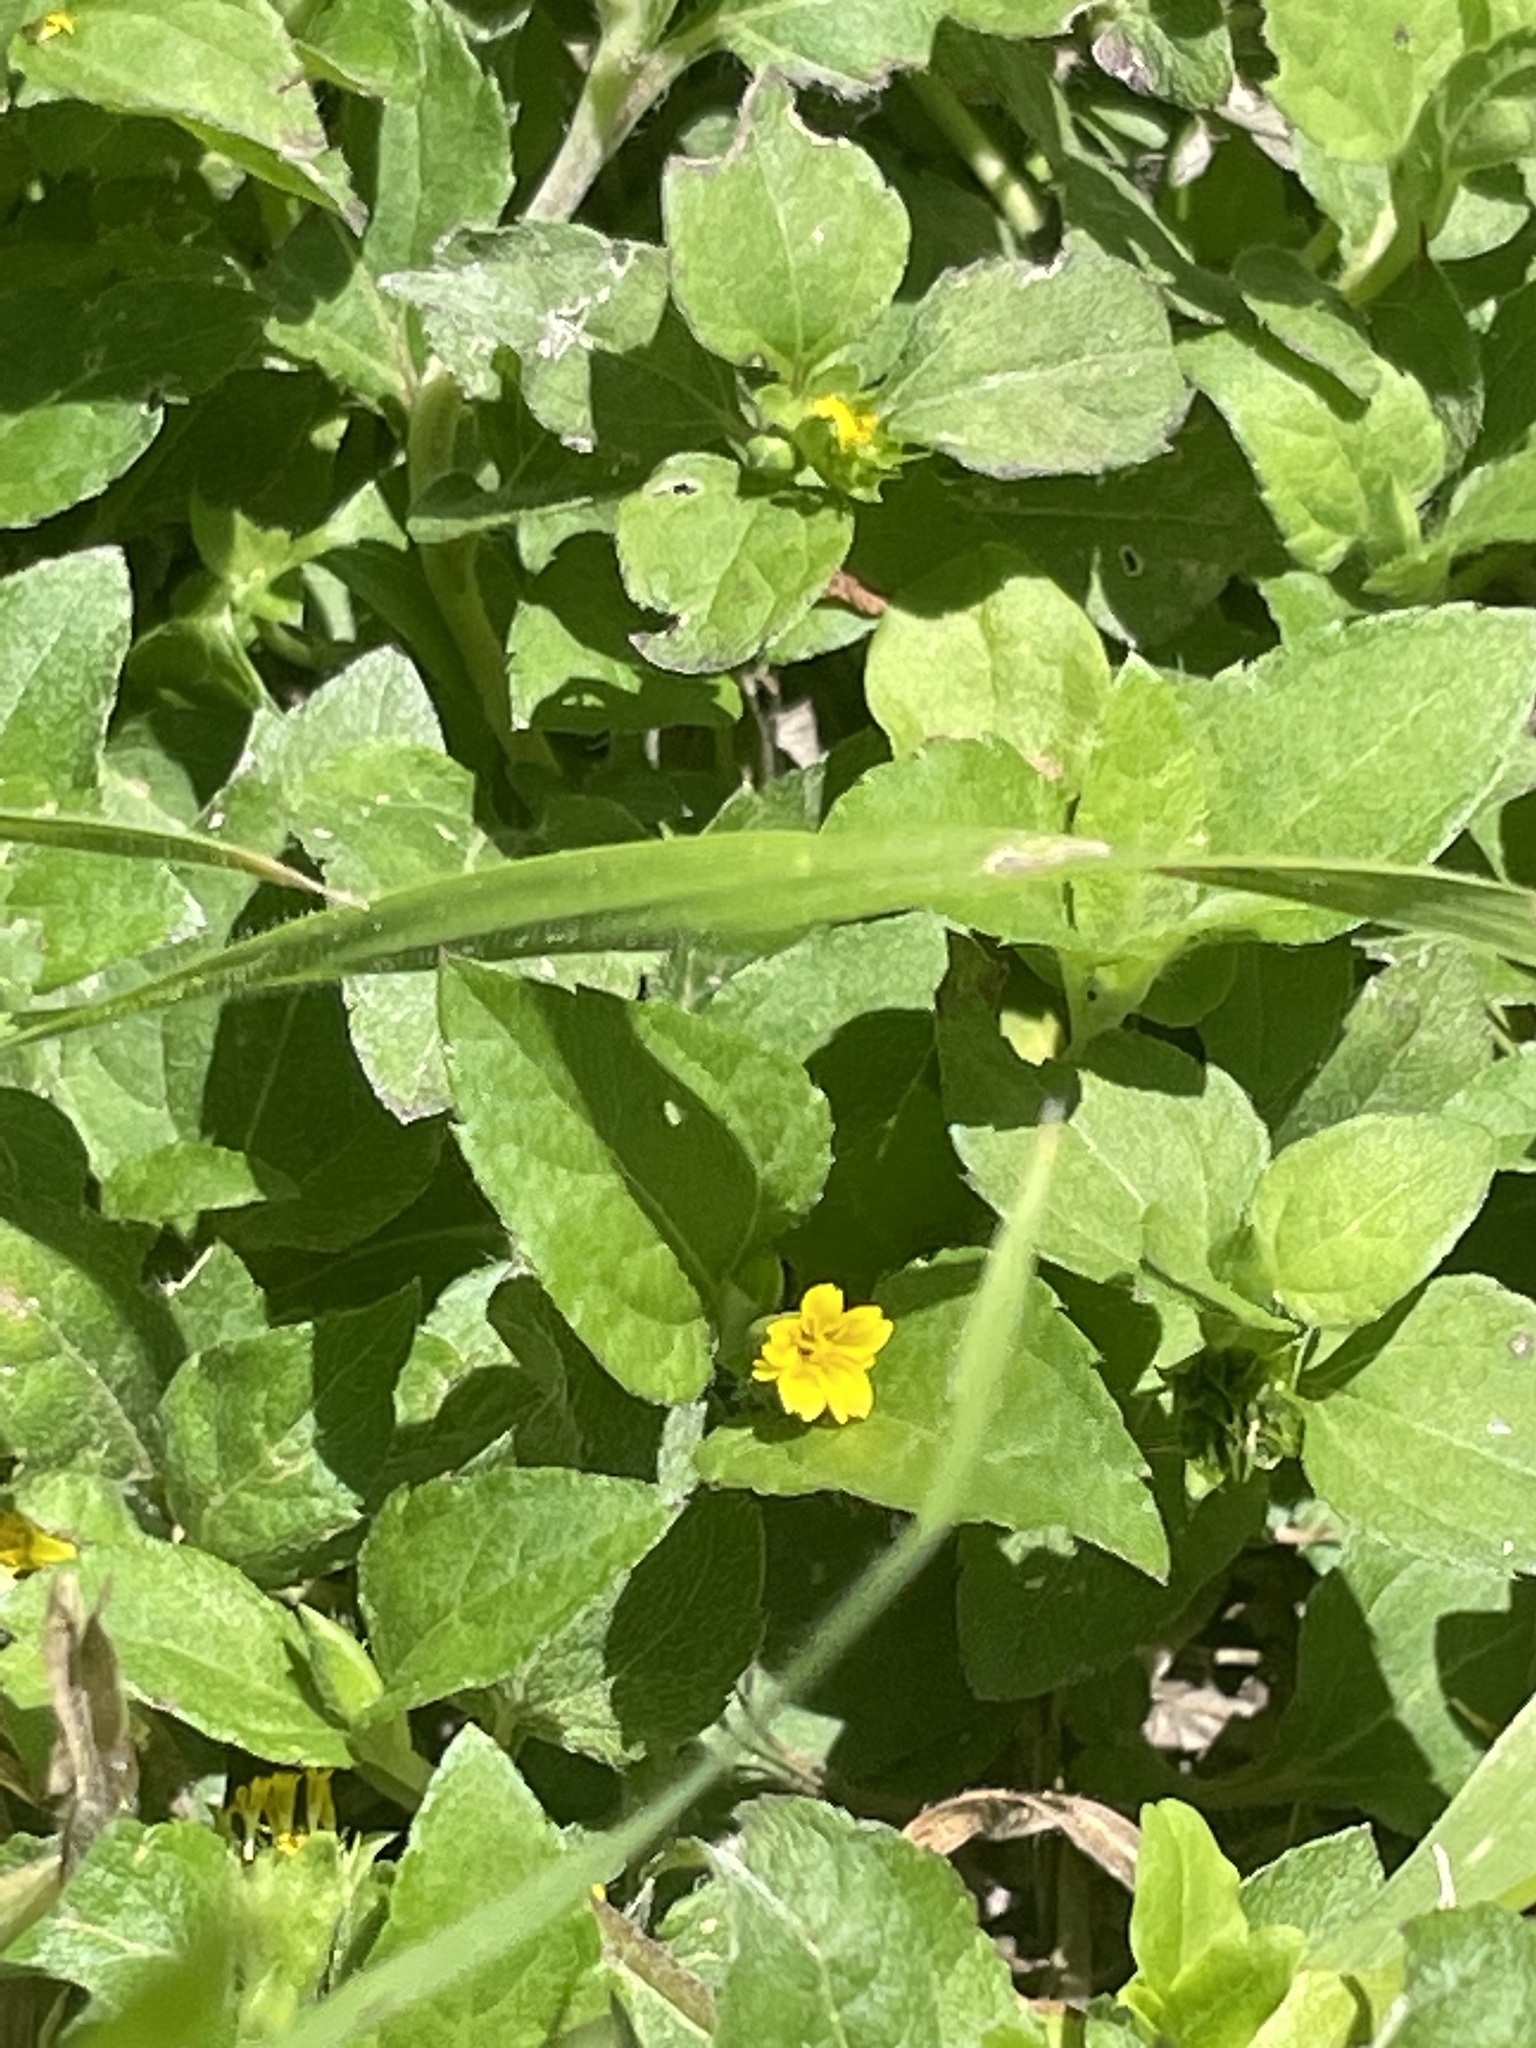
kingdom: Plantae
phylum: Tracheophyta
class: Magnoliopsida
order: Asterales
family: Asteraceae
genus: Calyptocarpus
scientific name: Calyptocarpus vialis
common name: Straggler daisy
